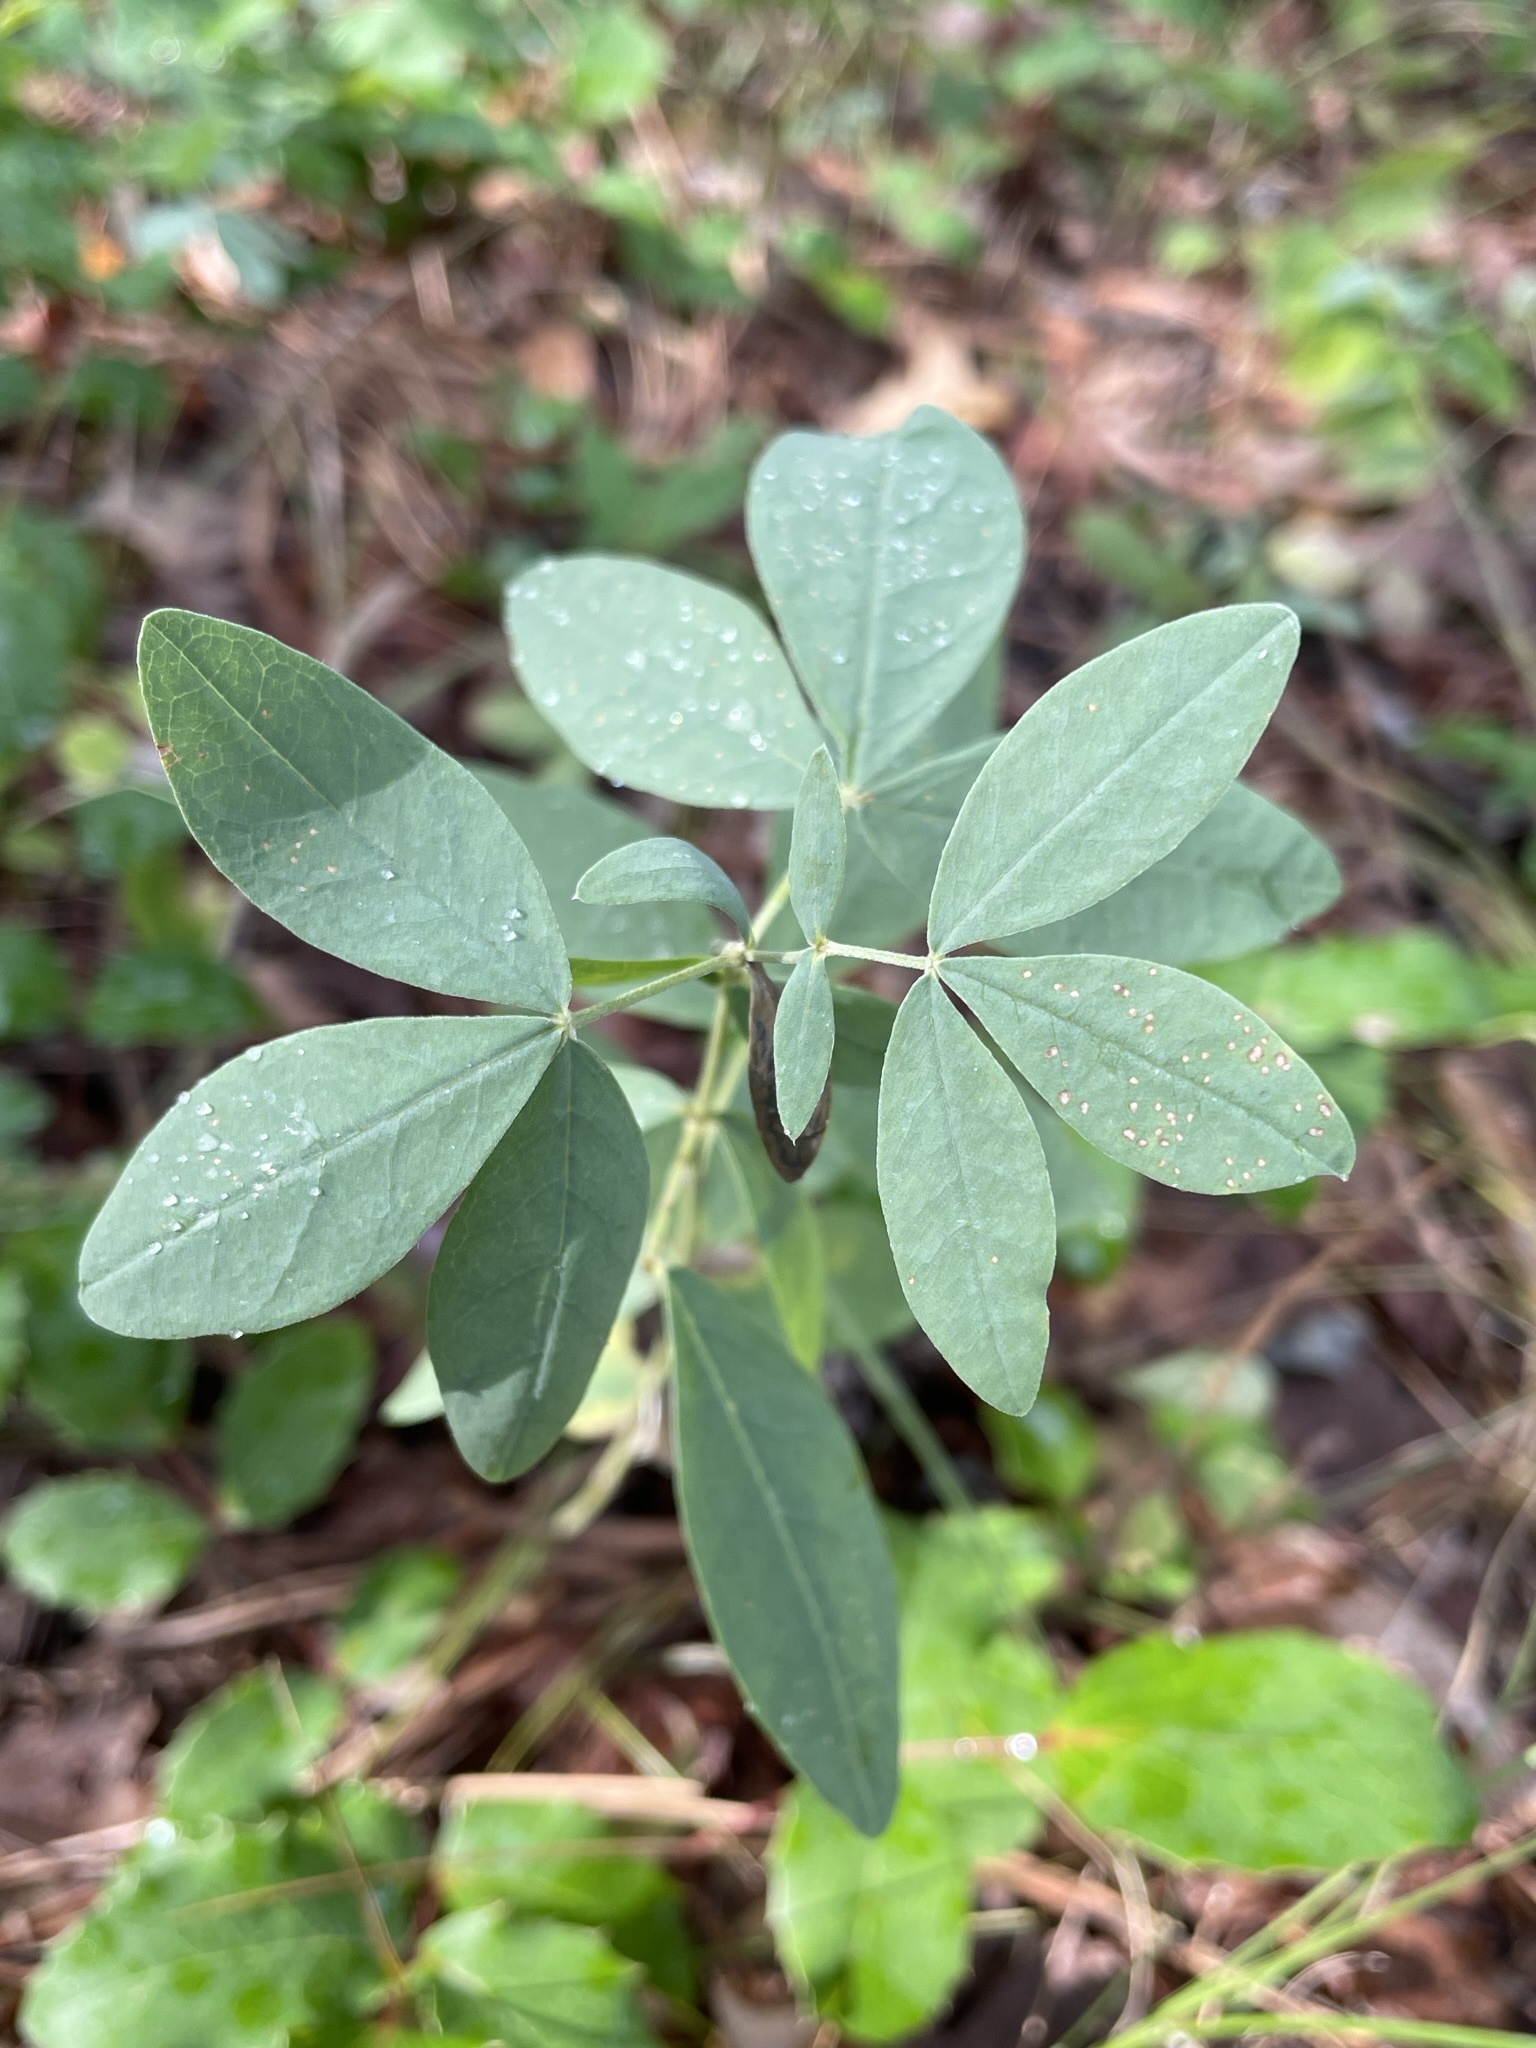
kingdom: Plantae
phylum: Tracheophyta
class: Magnoliopsida
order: Fabales
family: Fabaceae
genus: Thermopsis
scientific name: Thermopsis rhombifolia
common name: Circle-pod-pea
